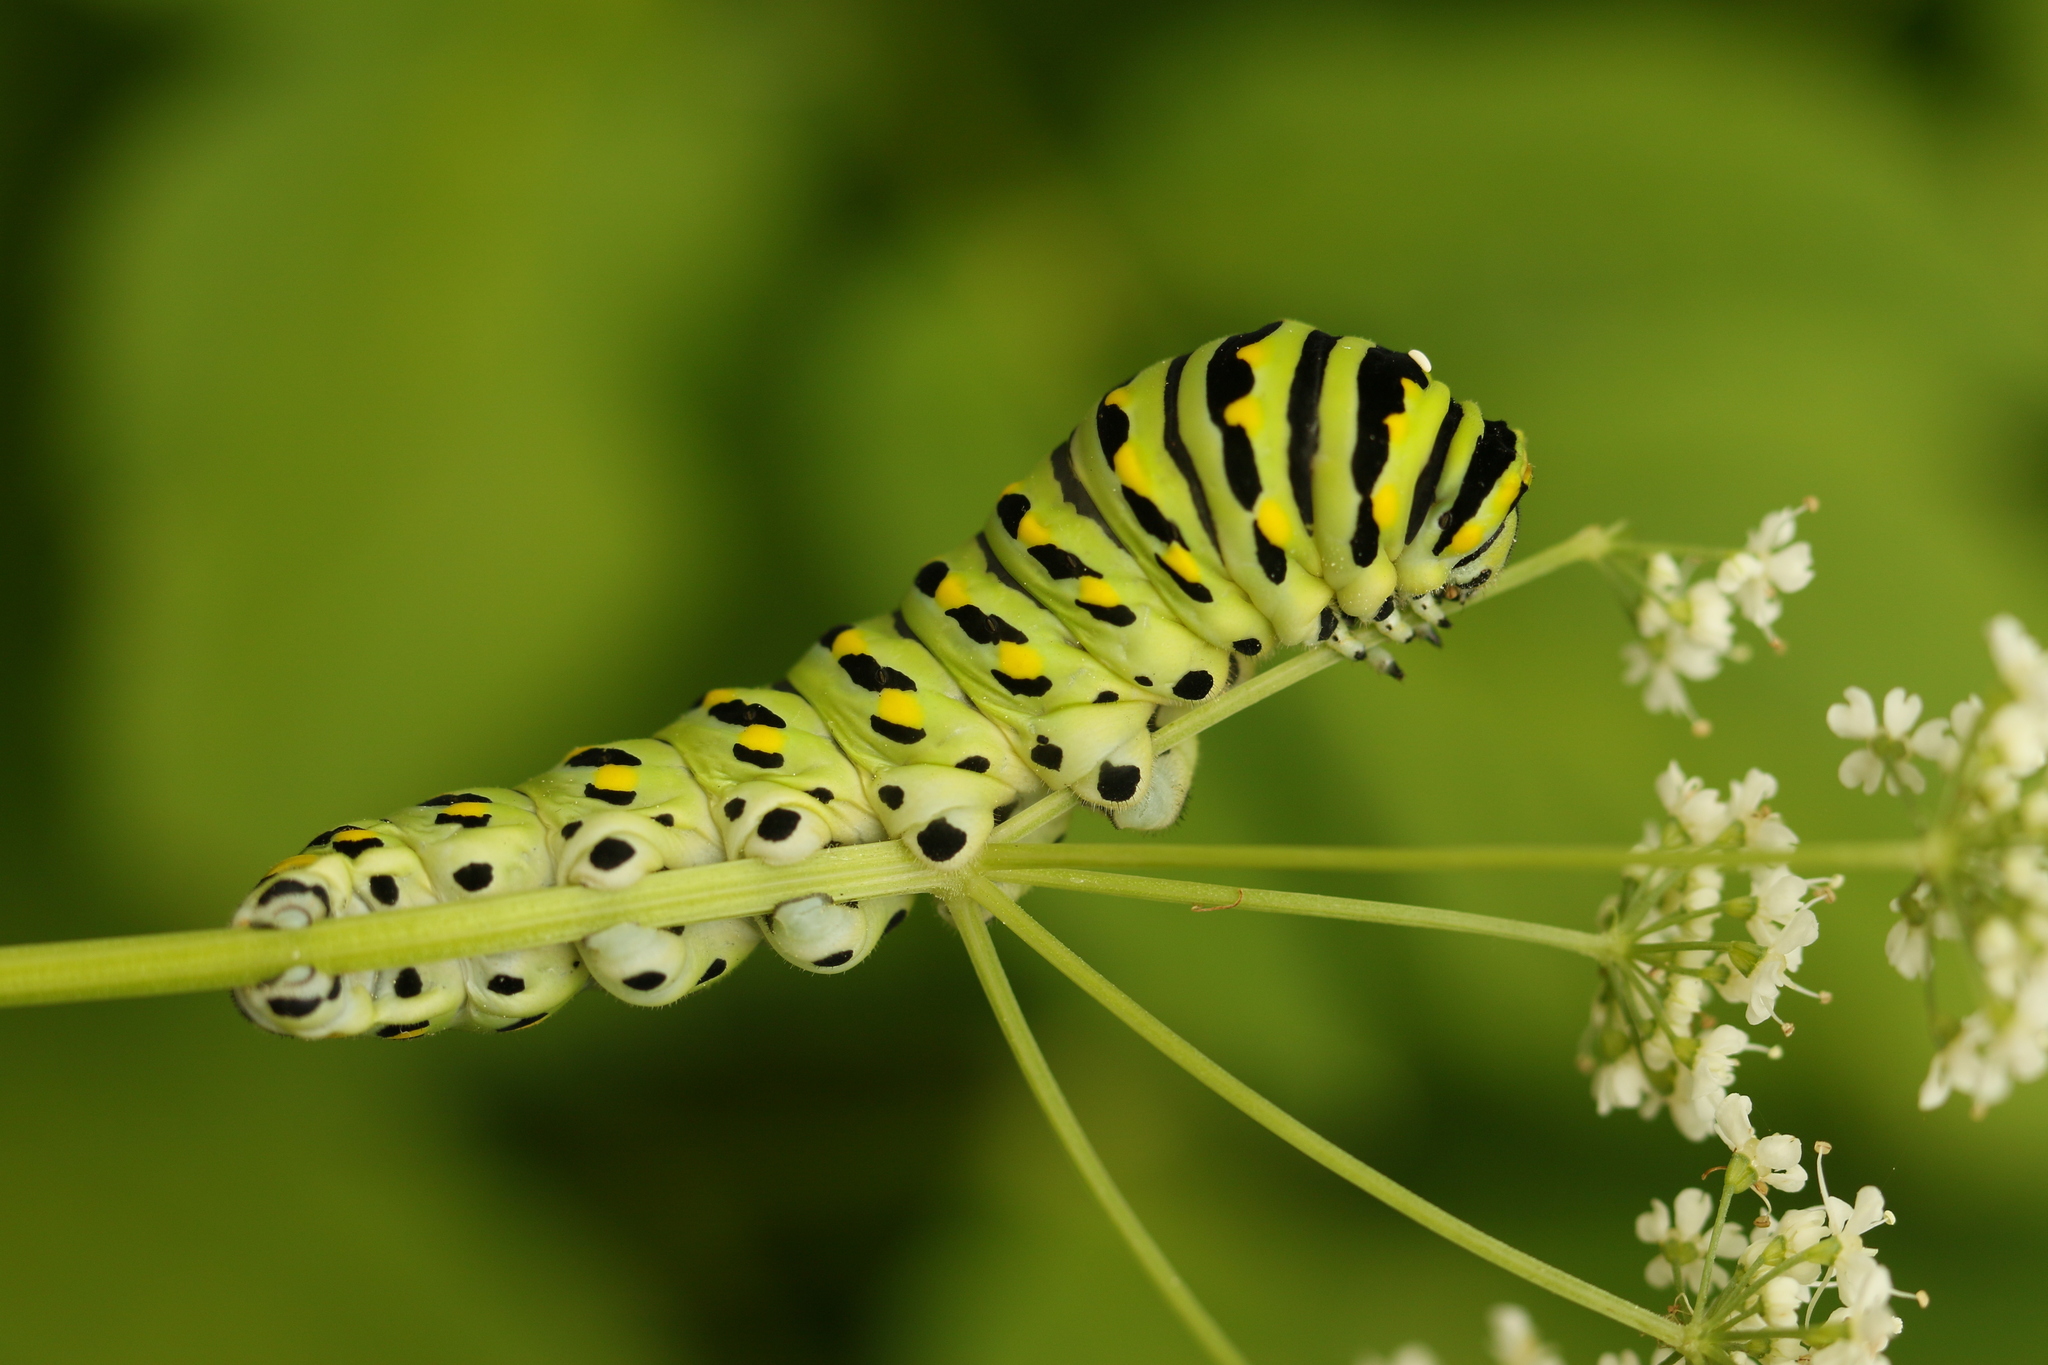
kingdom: Animalia
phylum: Arthropoda
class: Insecta
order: Lepidoptera
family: Papilionidae
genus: Papilio
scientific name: Papilio polyxenes
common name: Black swallowtail
